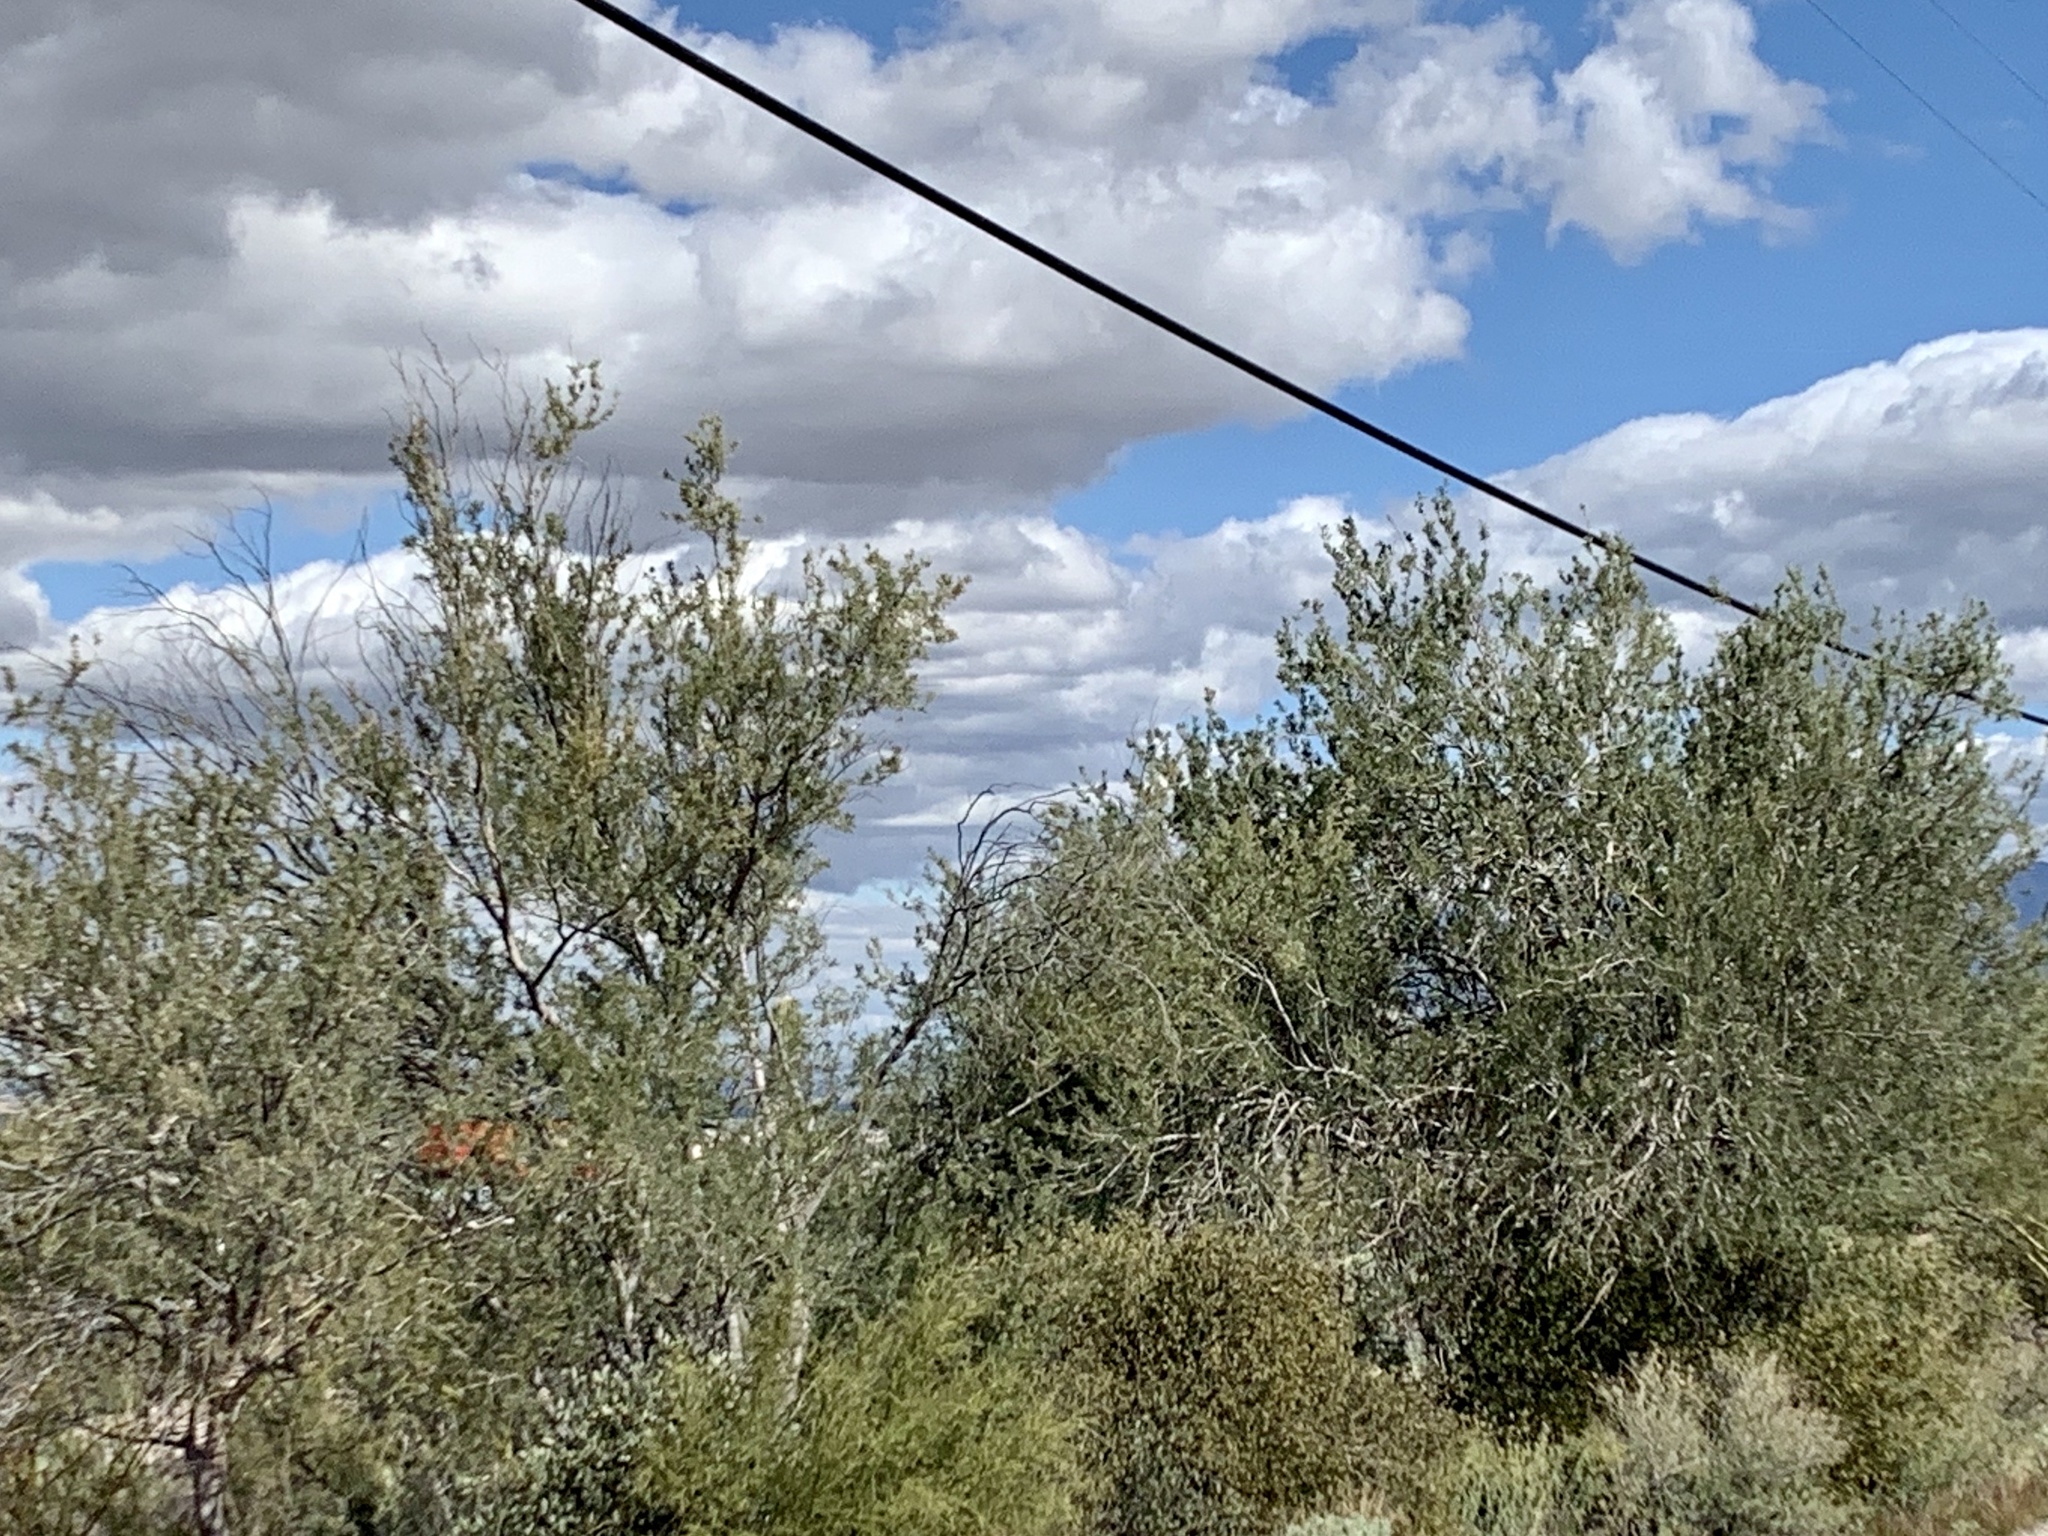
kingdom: Plantae
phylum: Tracheophyta
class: Magnoliopsida
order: Fabales
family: Fabaceae
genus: Olneya
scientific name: Olneya tesota
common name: Desert ironwood
